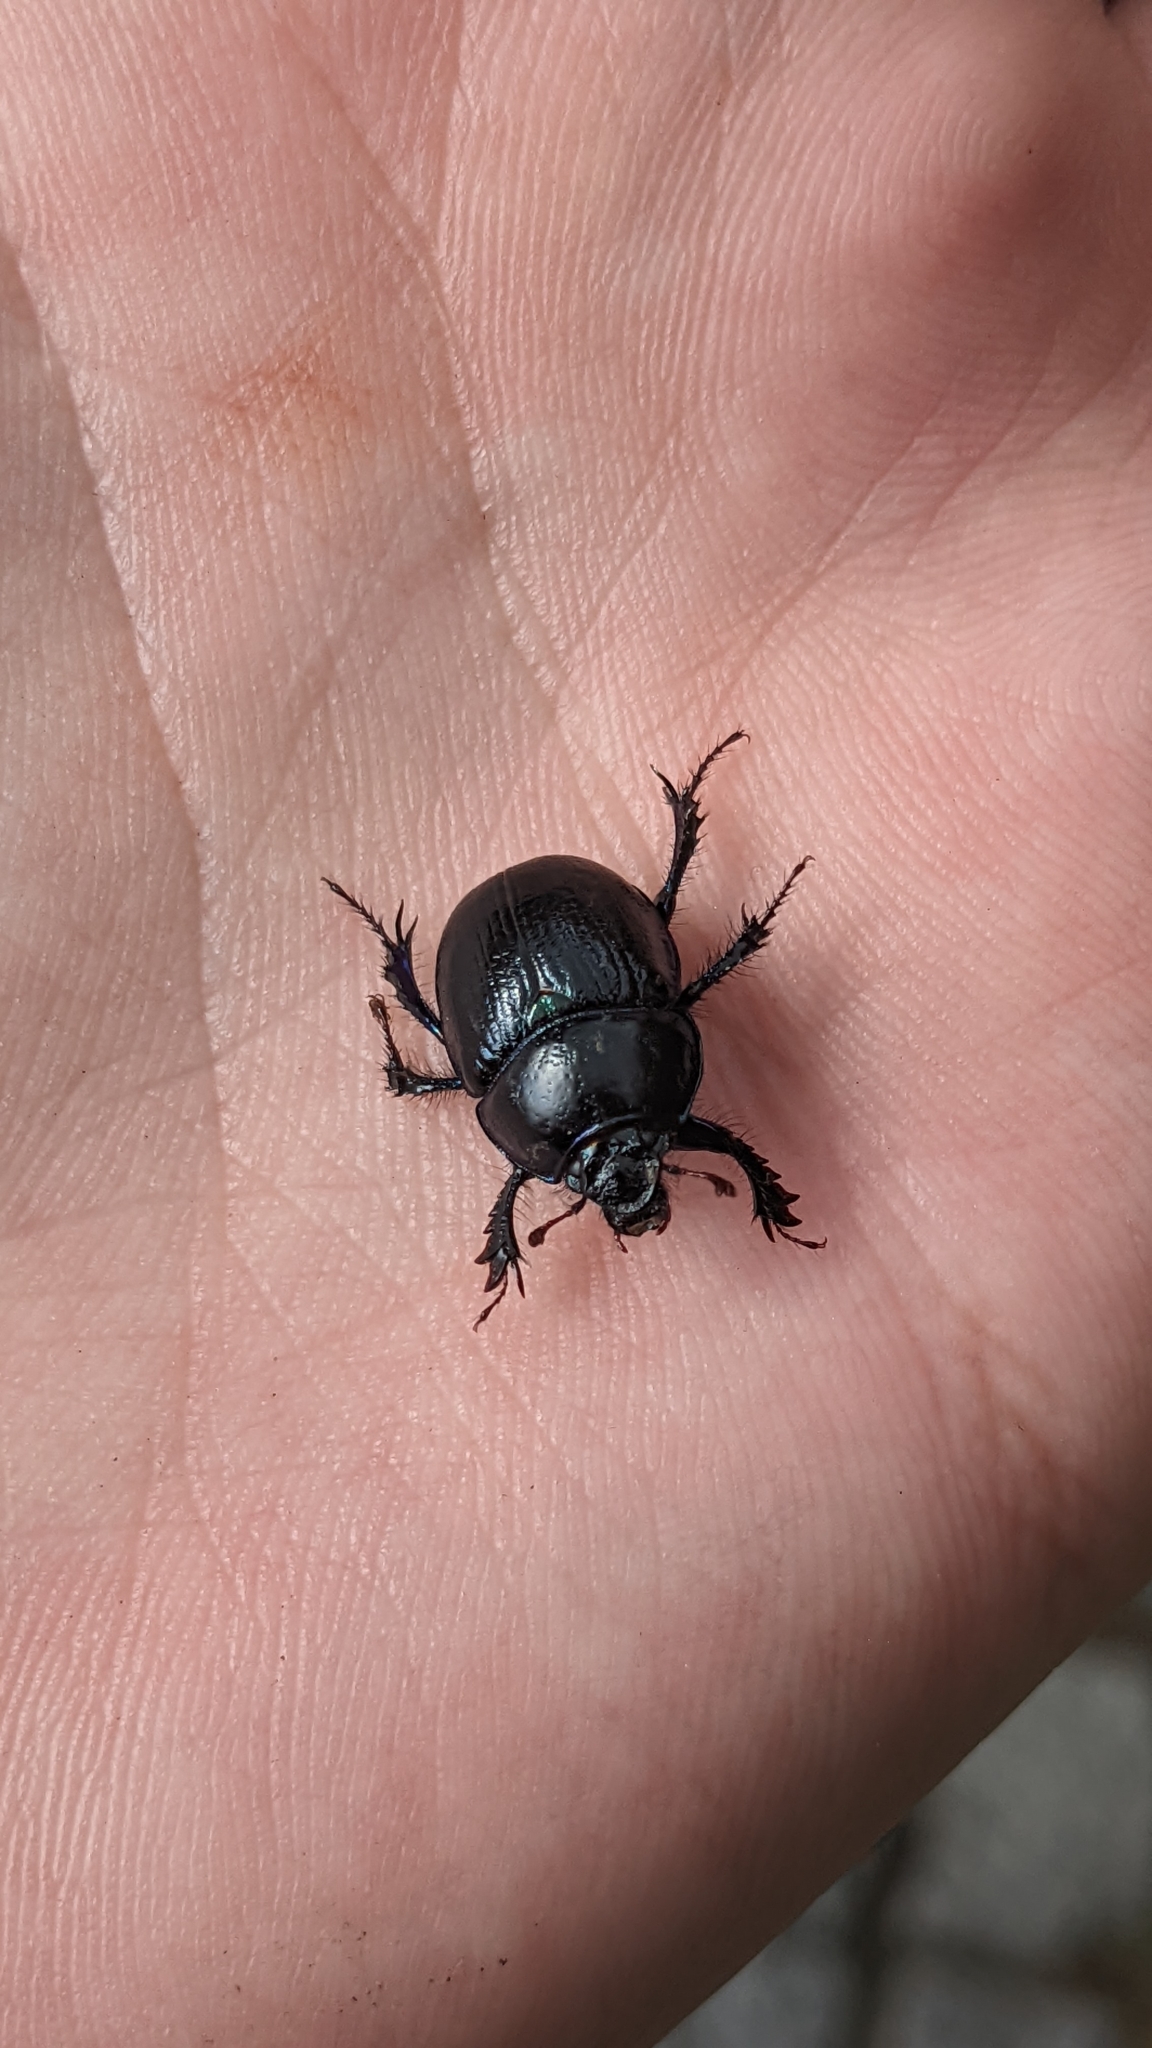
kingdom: Animalia
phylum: Arthropoda
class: Insecta
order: Coleoptera
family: Geotrupidae
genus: Anoplotrupes
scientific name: Anoplotrupes stercorosus
